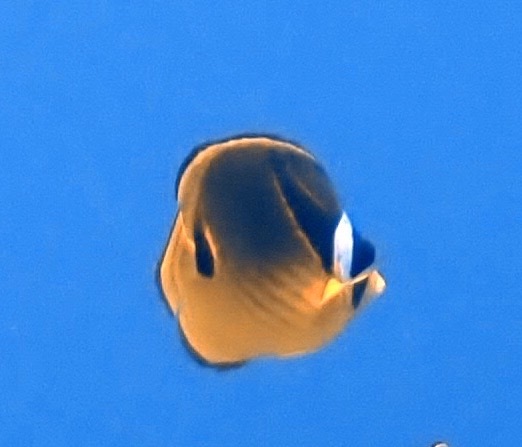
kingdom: Animalia
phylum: Chordata
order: Perciformes
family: Chaetodontidae
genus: Chaetodon
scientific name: Chaetodon lunula
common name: Raccoon butterflyfish
